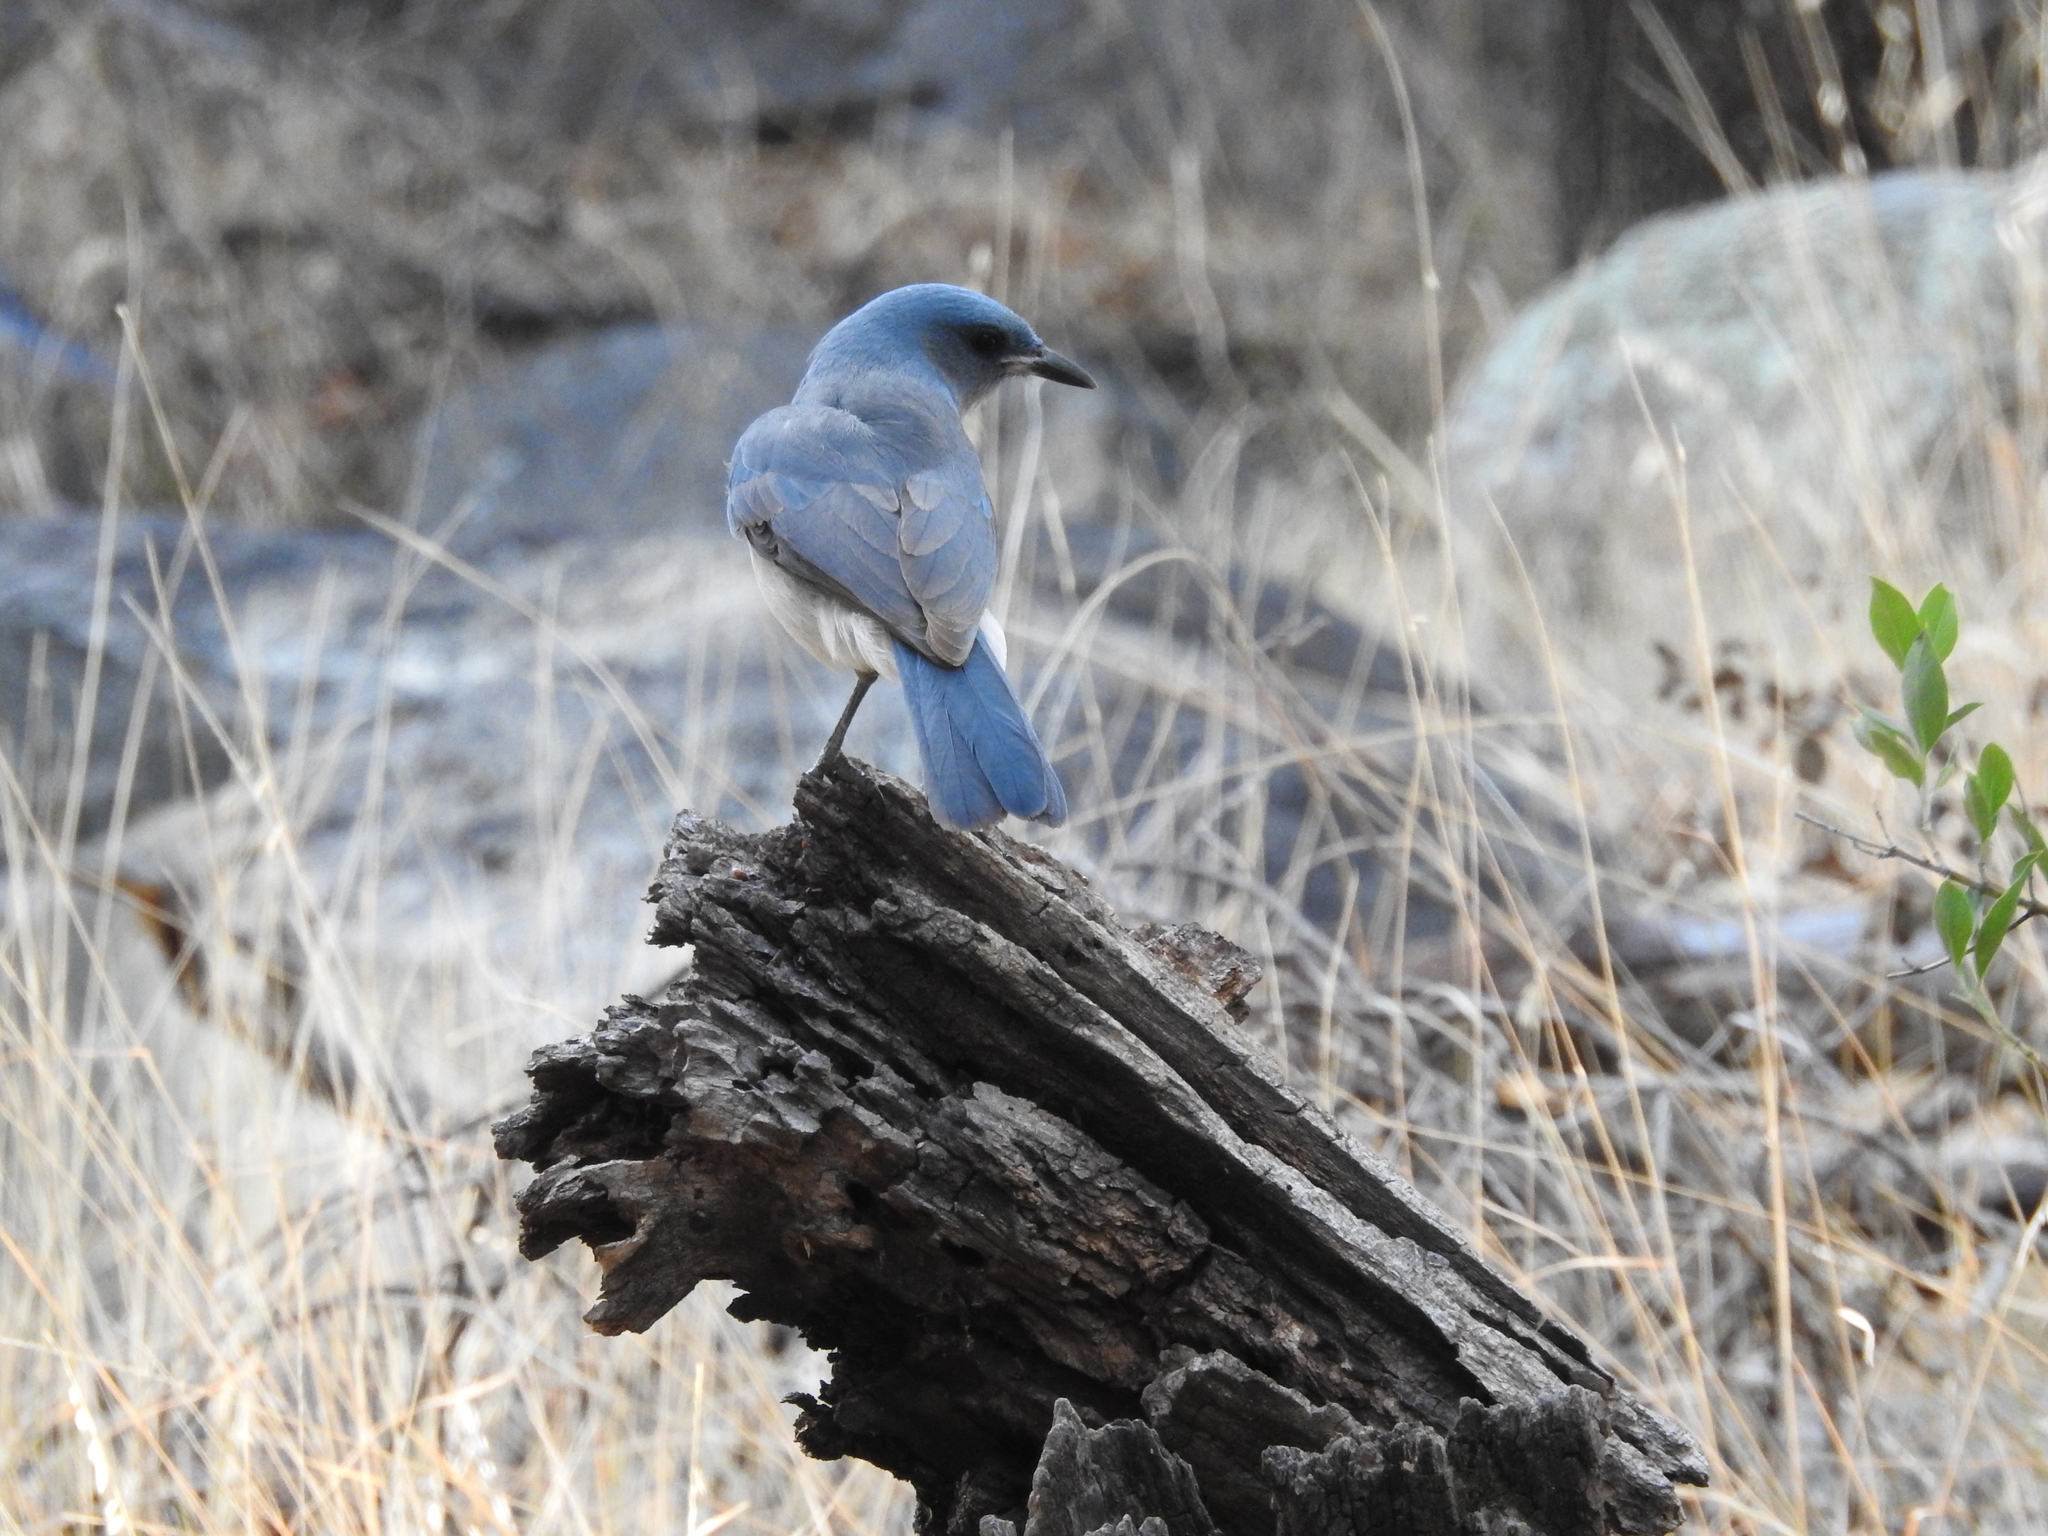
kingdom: Animalia
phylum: Chordata
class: Aves
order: Passeriformes
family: Corvidae
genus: Aphelocoma
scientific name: Aphelocoma wollweberi
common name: Mexican jay
